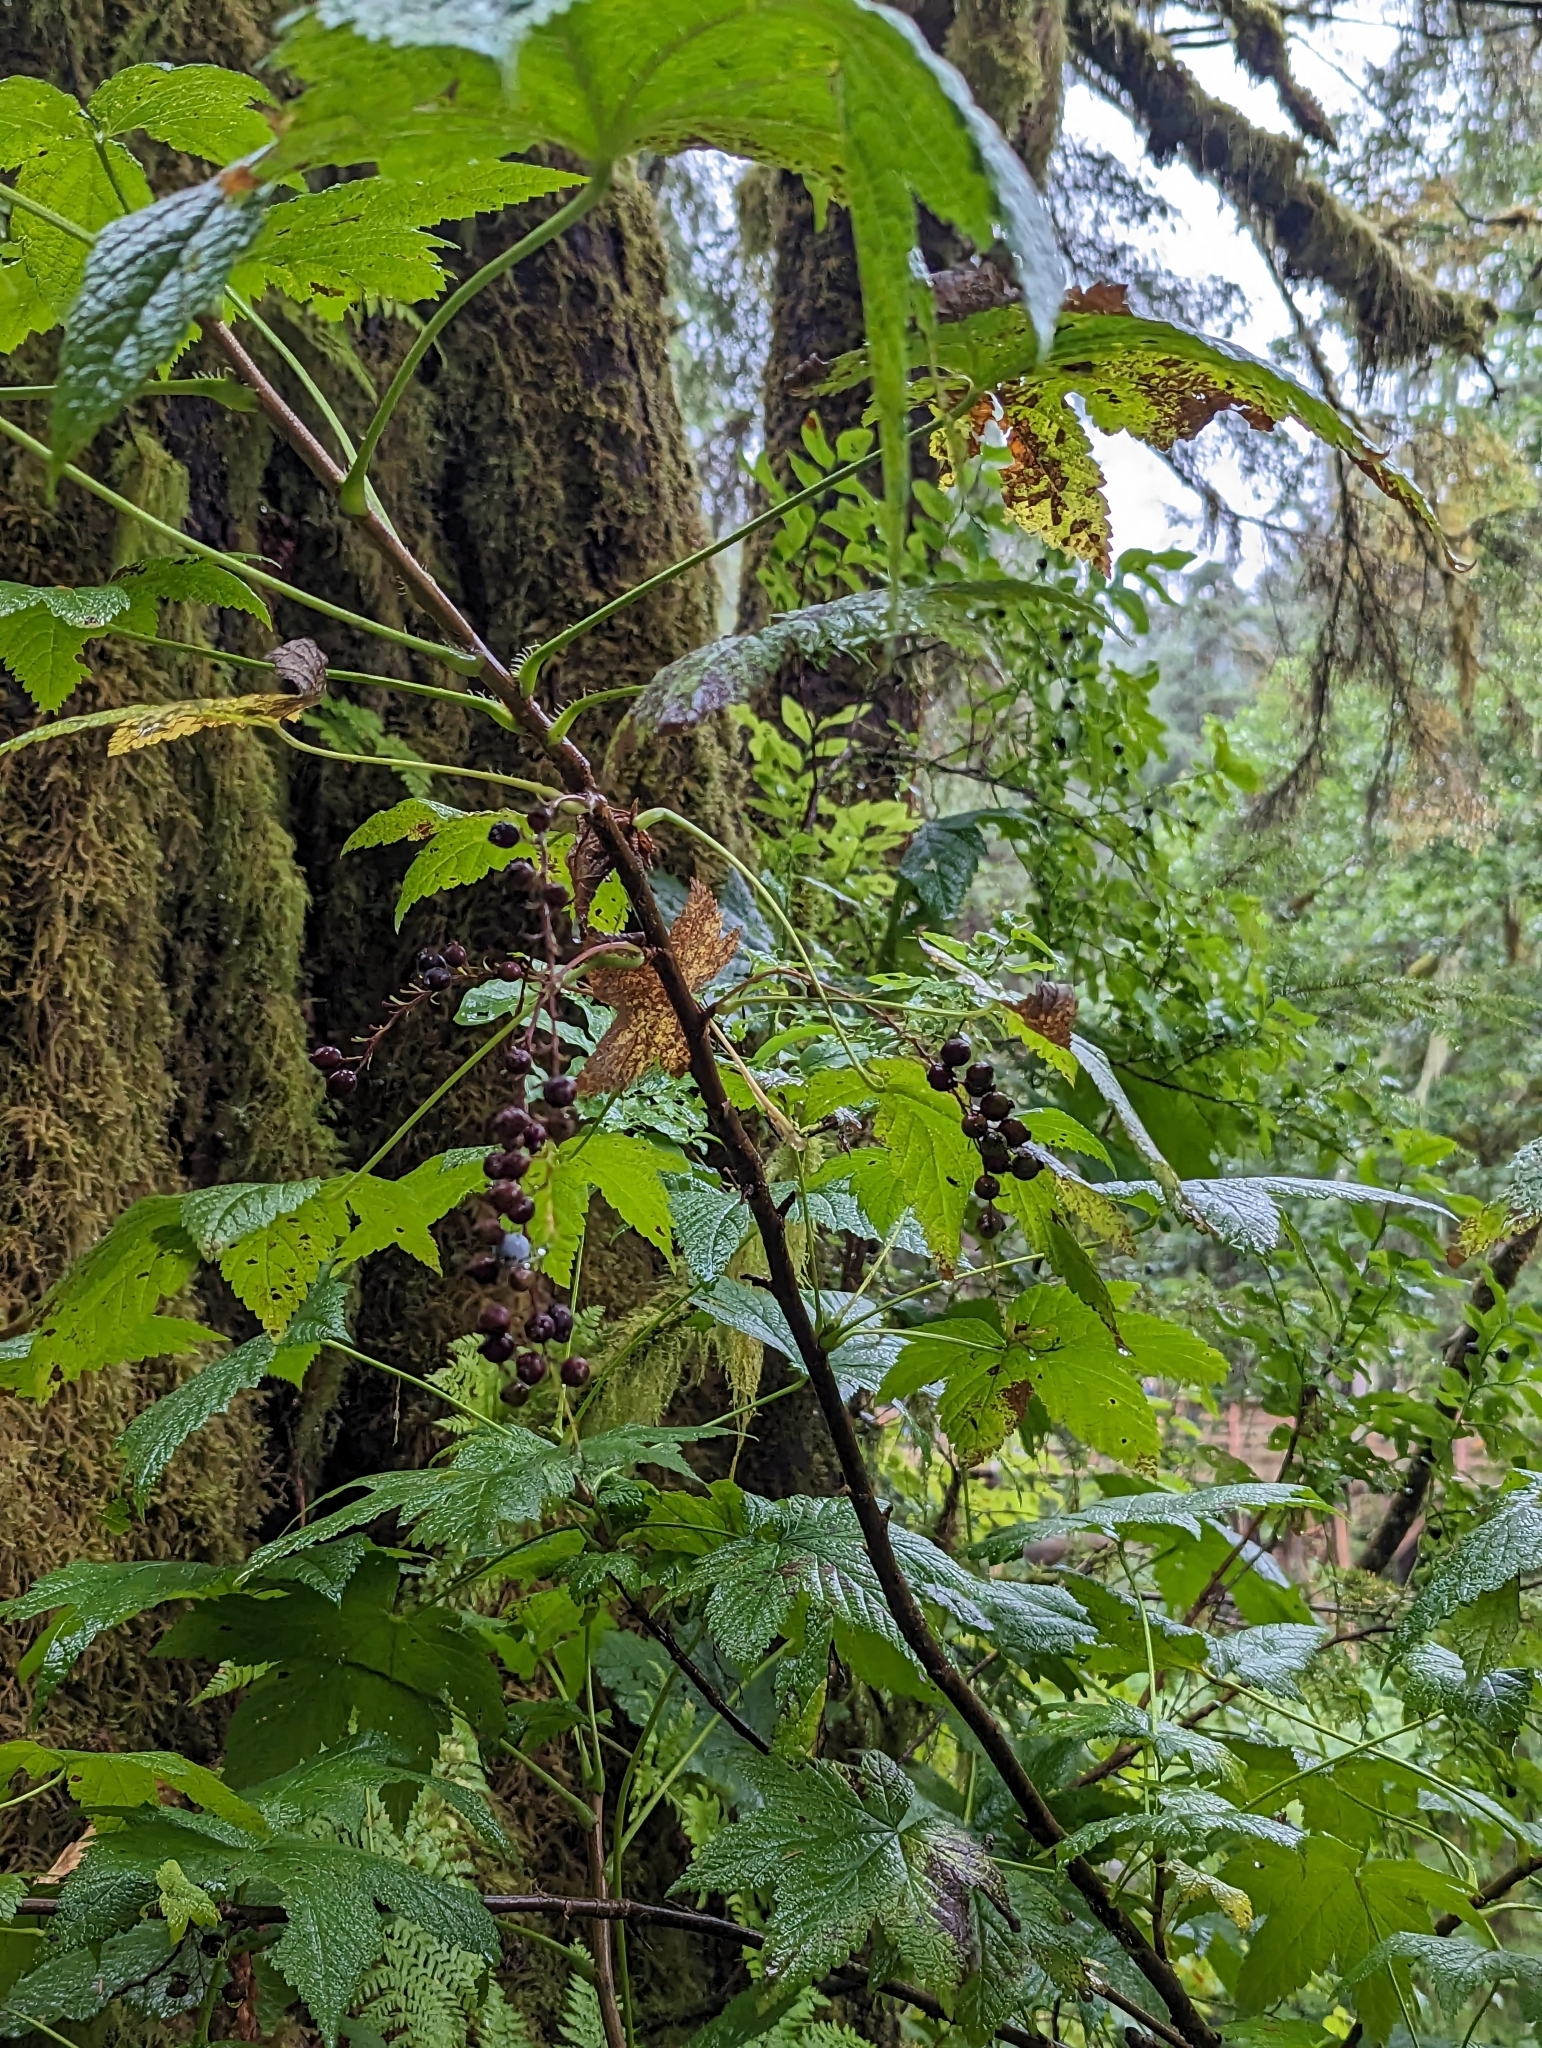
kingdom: Plantae
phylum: Tracheophyta
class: Magnoliopsida
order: Saxifragales
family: Grossulariaceae
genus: Ribes
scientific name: Ribes bracteosum
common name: California black currant
